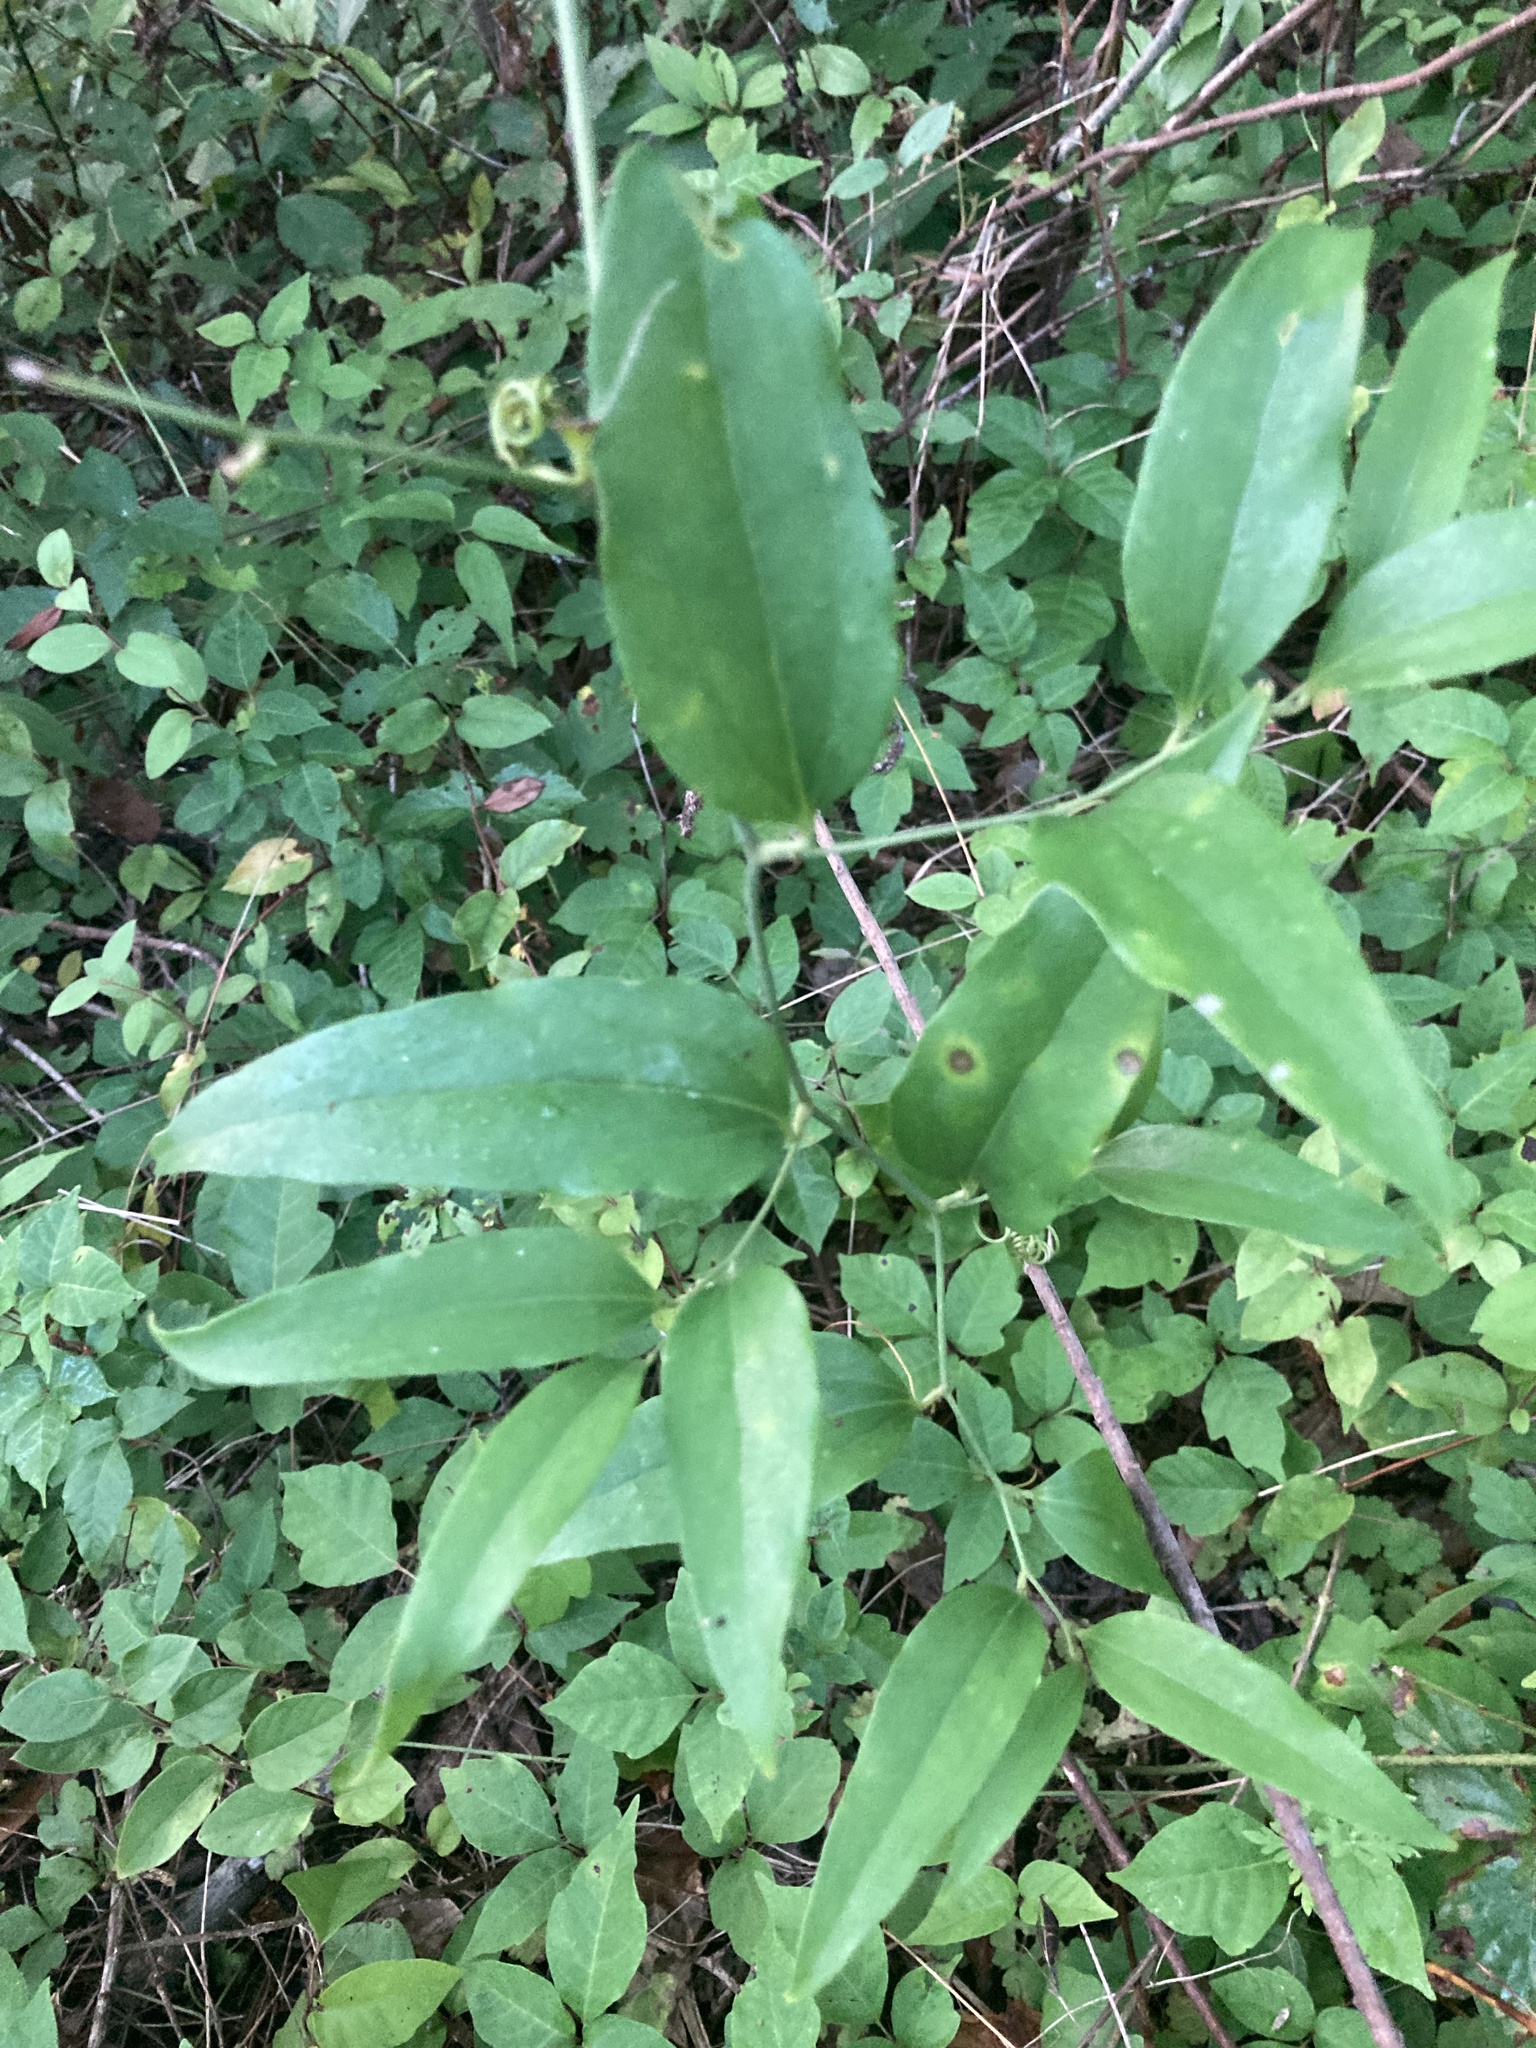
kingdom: Plantae
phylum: Tracheophyta
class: Liliopsida
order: Liliales
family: Smilacaceae
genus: Smilax
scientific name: Smilax maritima
